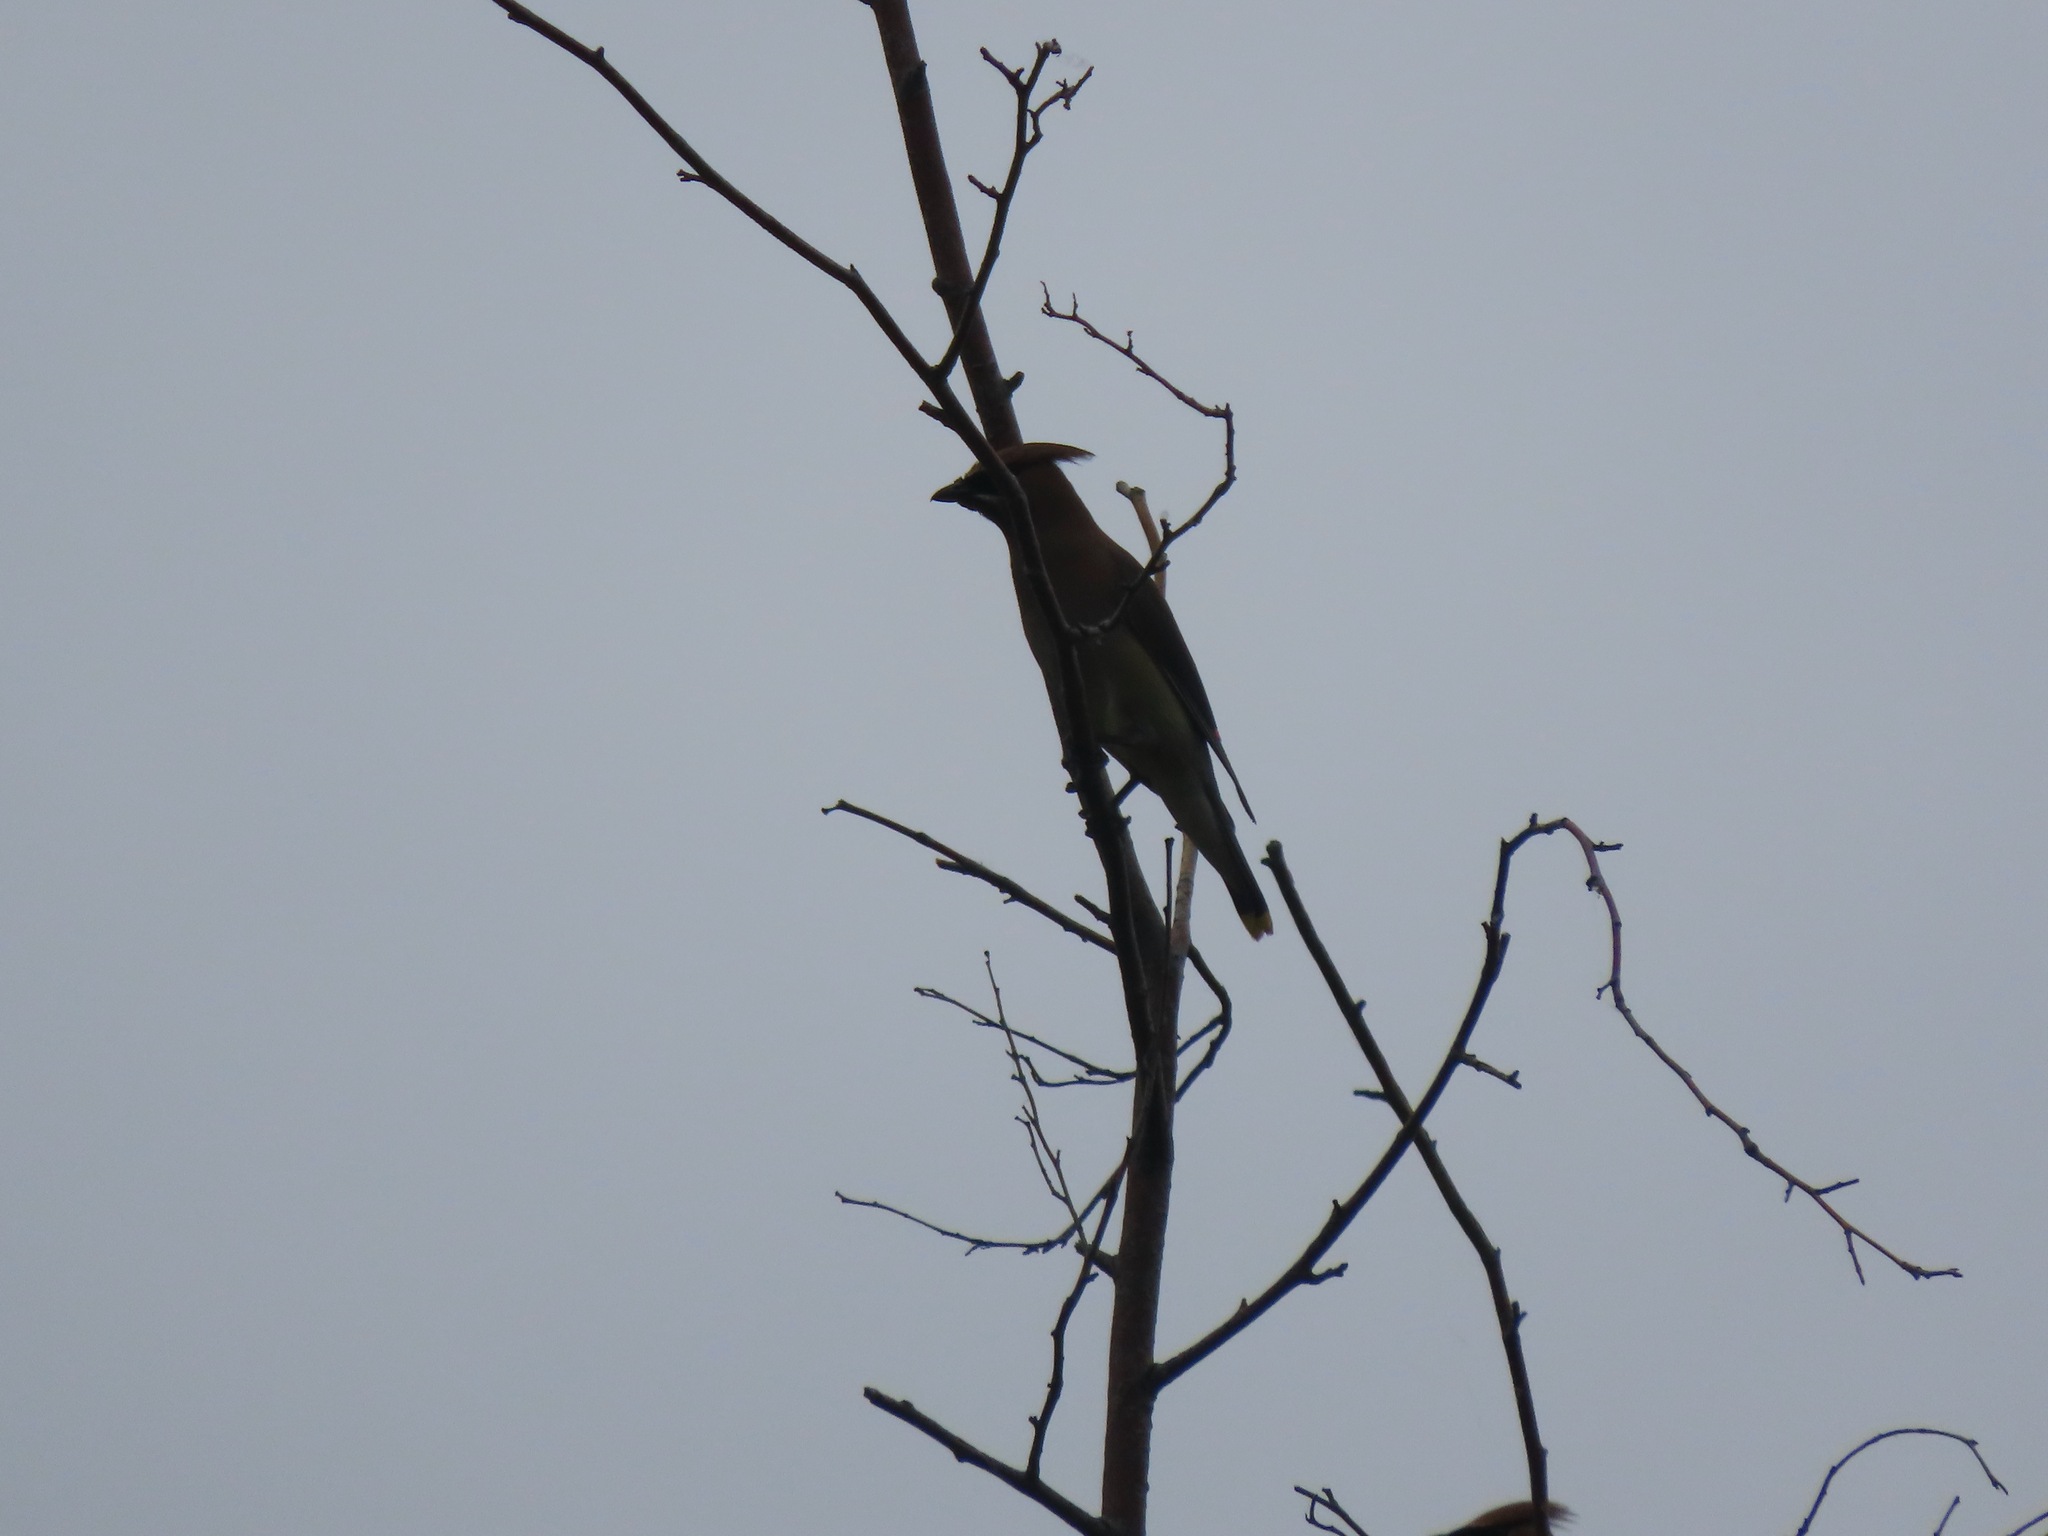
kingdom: Animalia
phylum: Chordata
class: Aves
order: Passeriformes
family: Bombycillidae
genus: Bombycilla
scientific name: Bombycilla cedrorum
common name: Cedar waxwing
